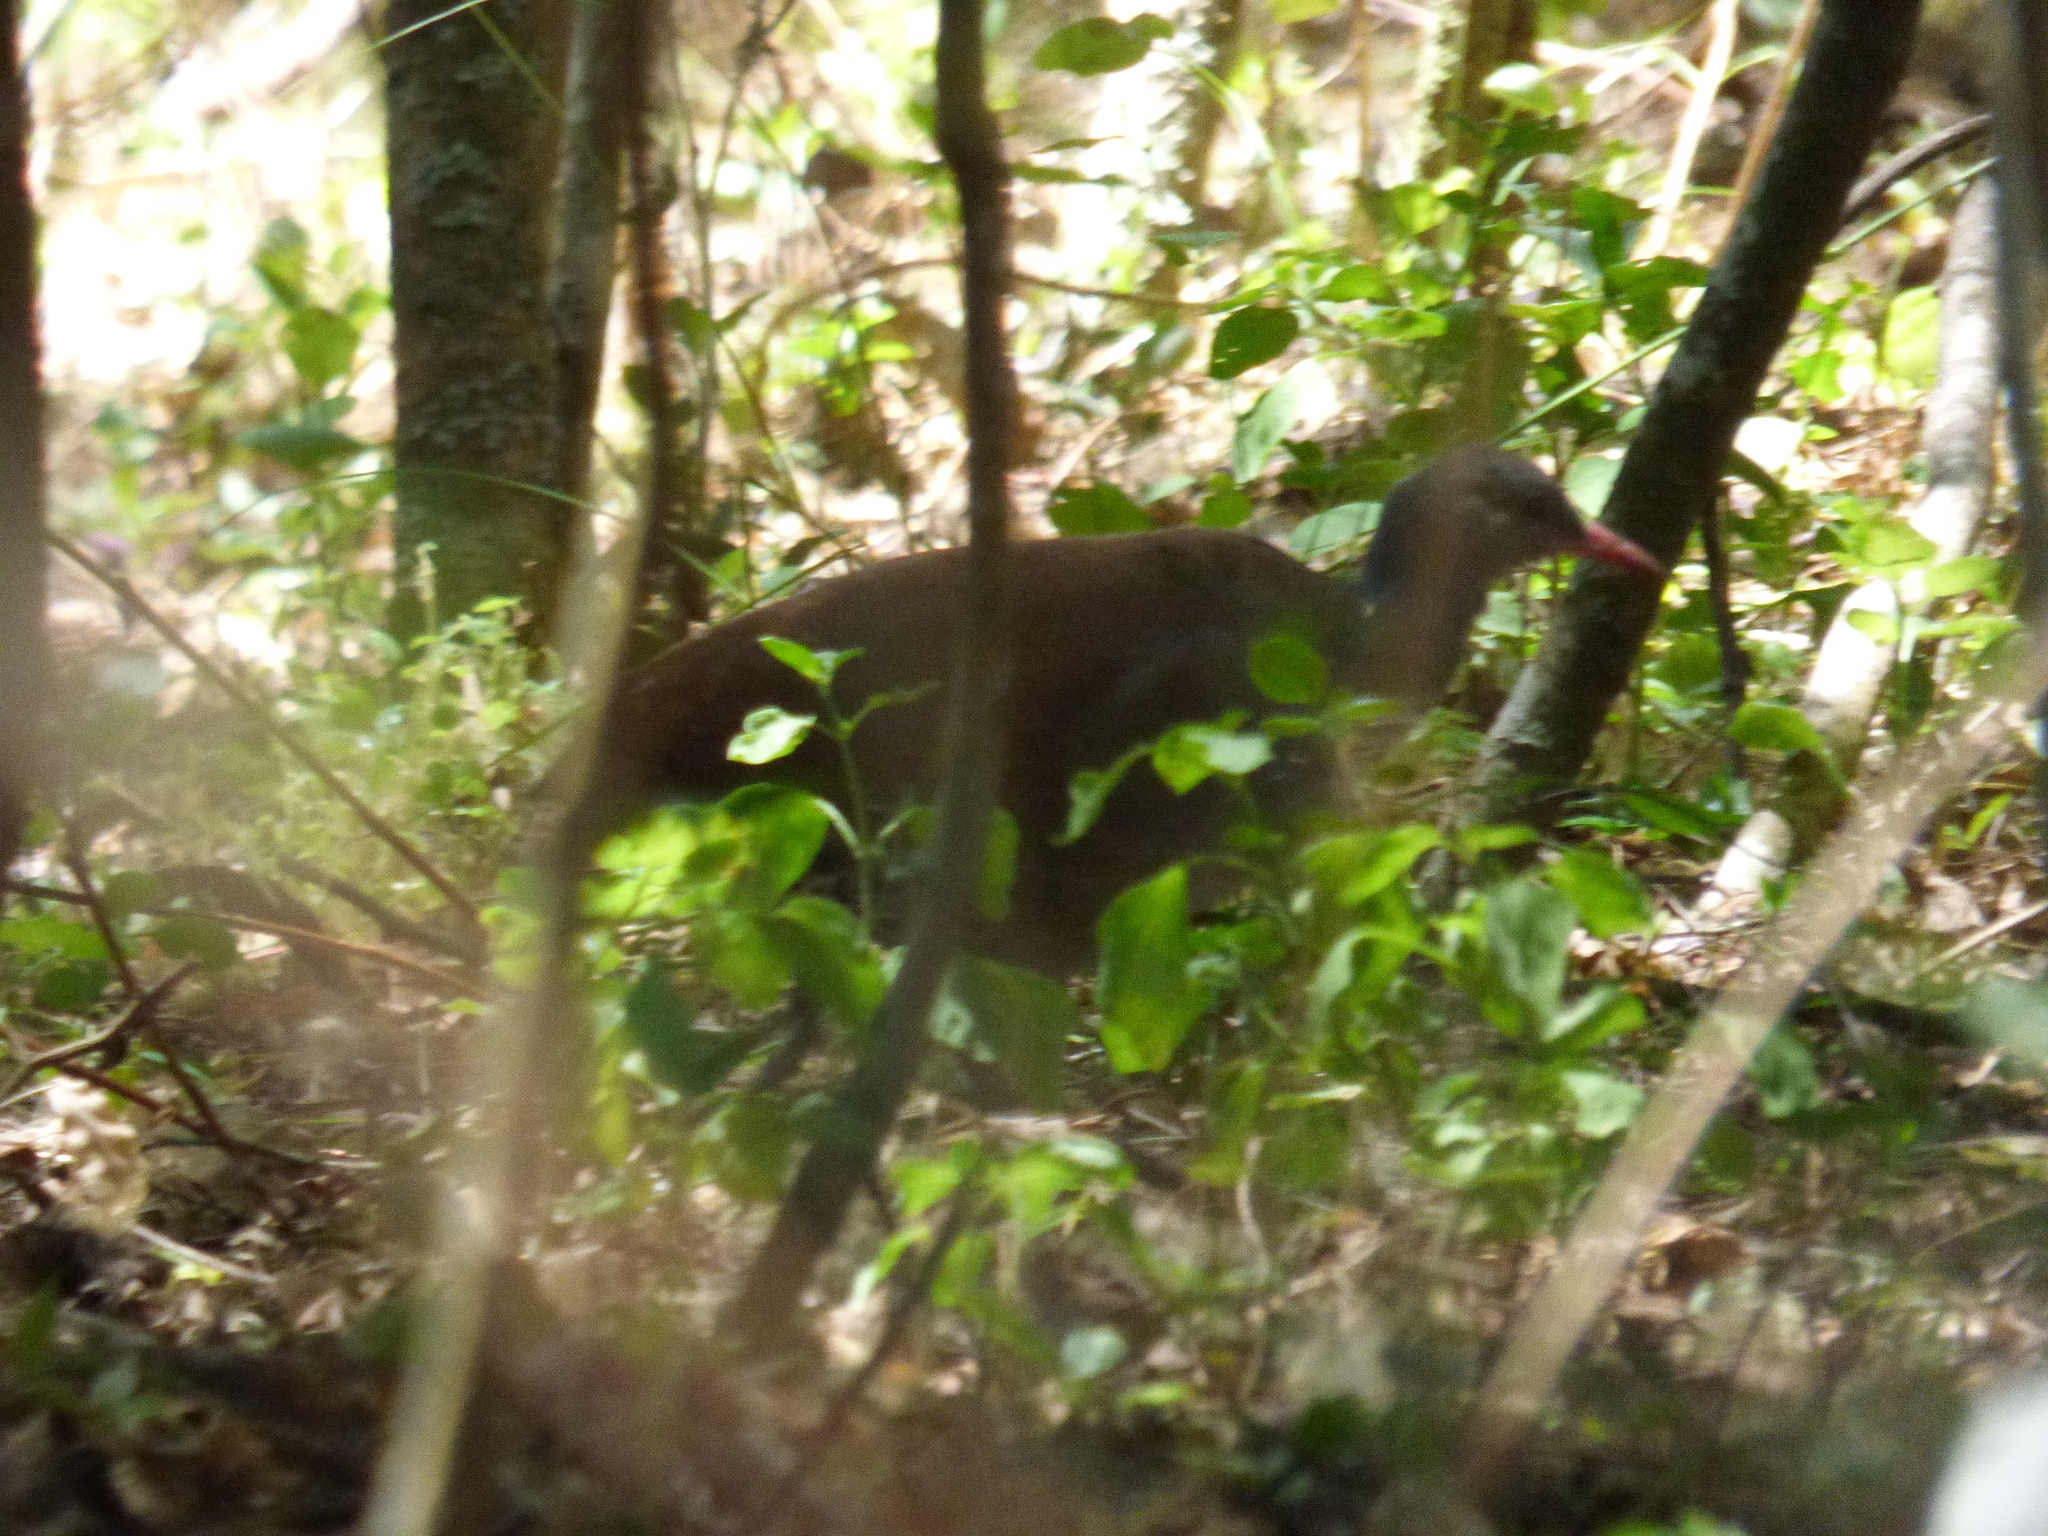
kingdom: Animalia
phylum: Chordata
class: Aves
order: Tinamiformes
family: Tinamidae
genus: Crypturellus
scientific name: Crypturellus tataupa
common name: Tataupa tinamou
